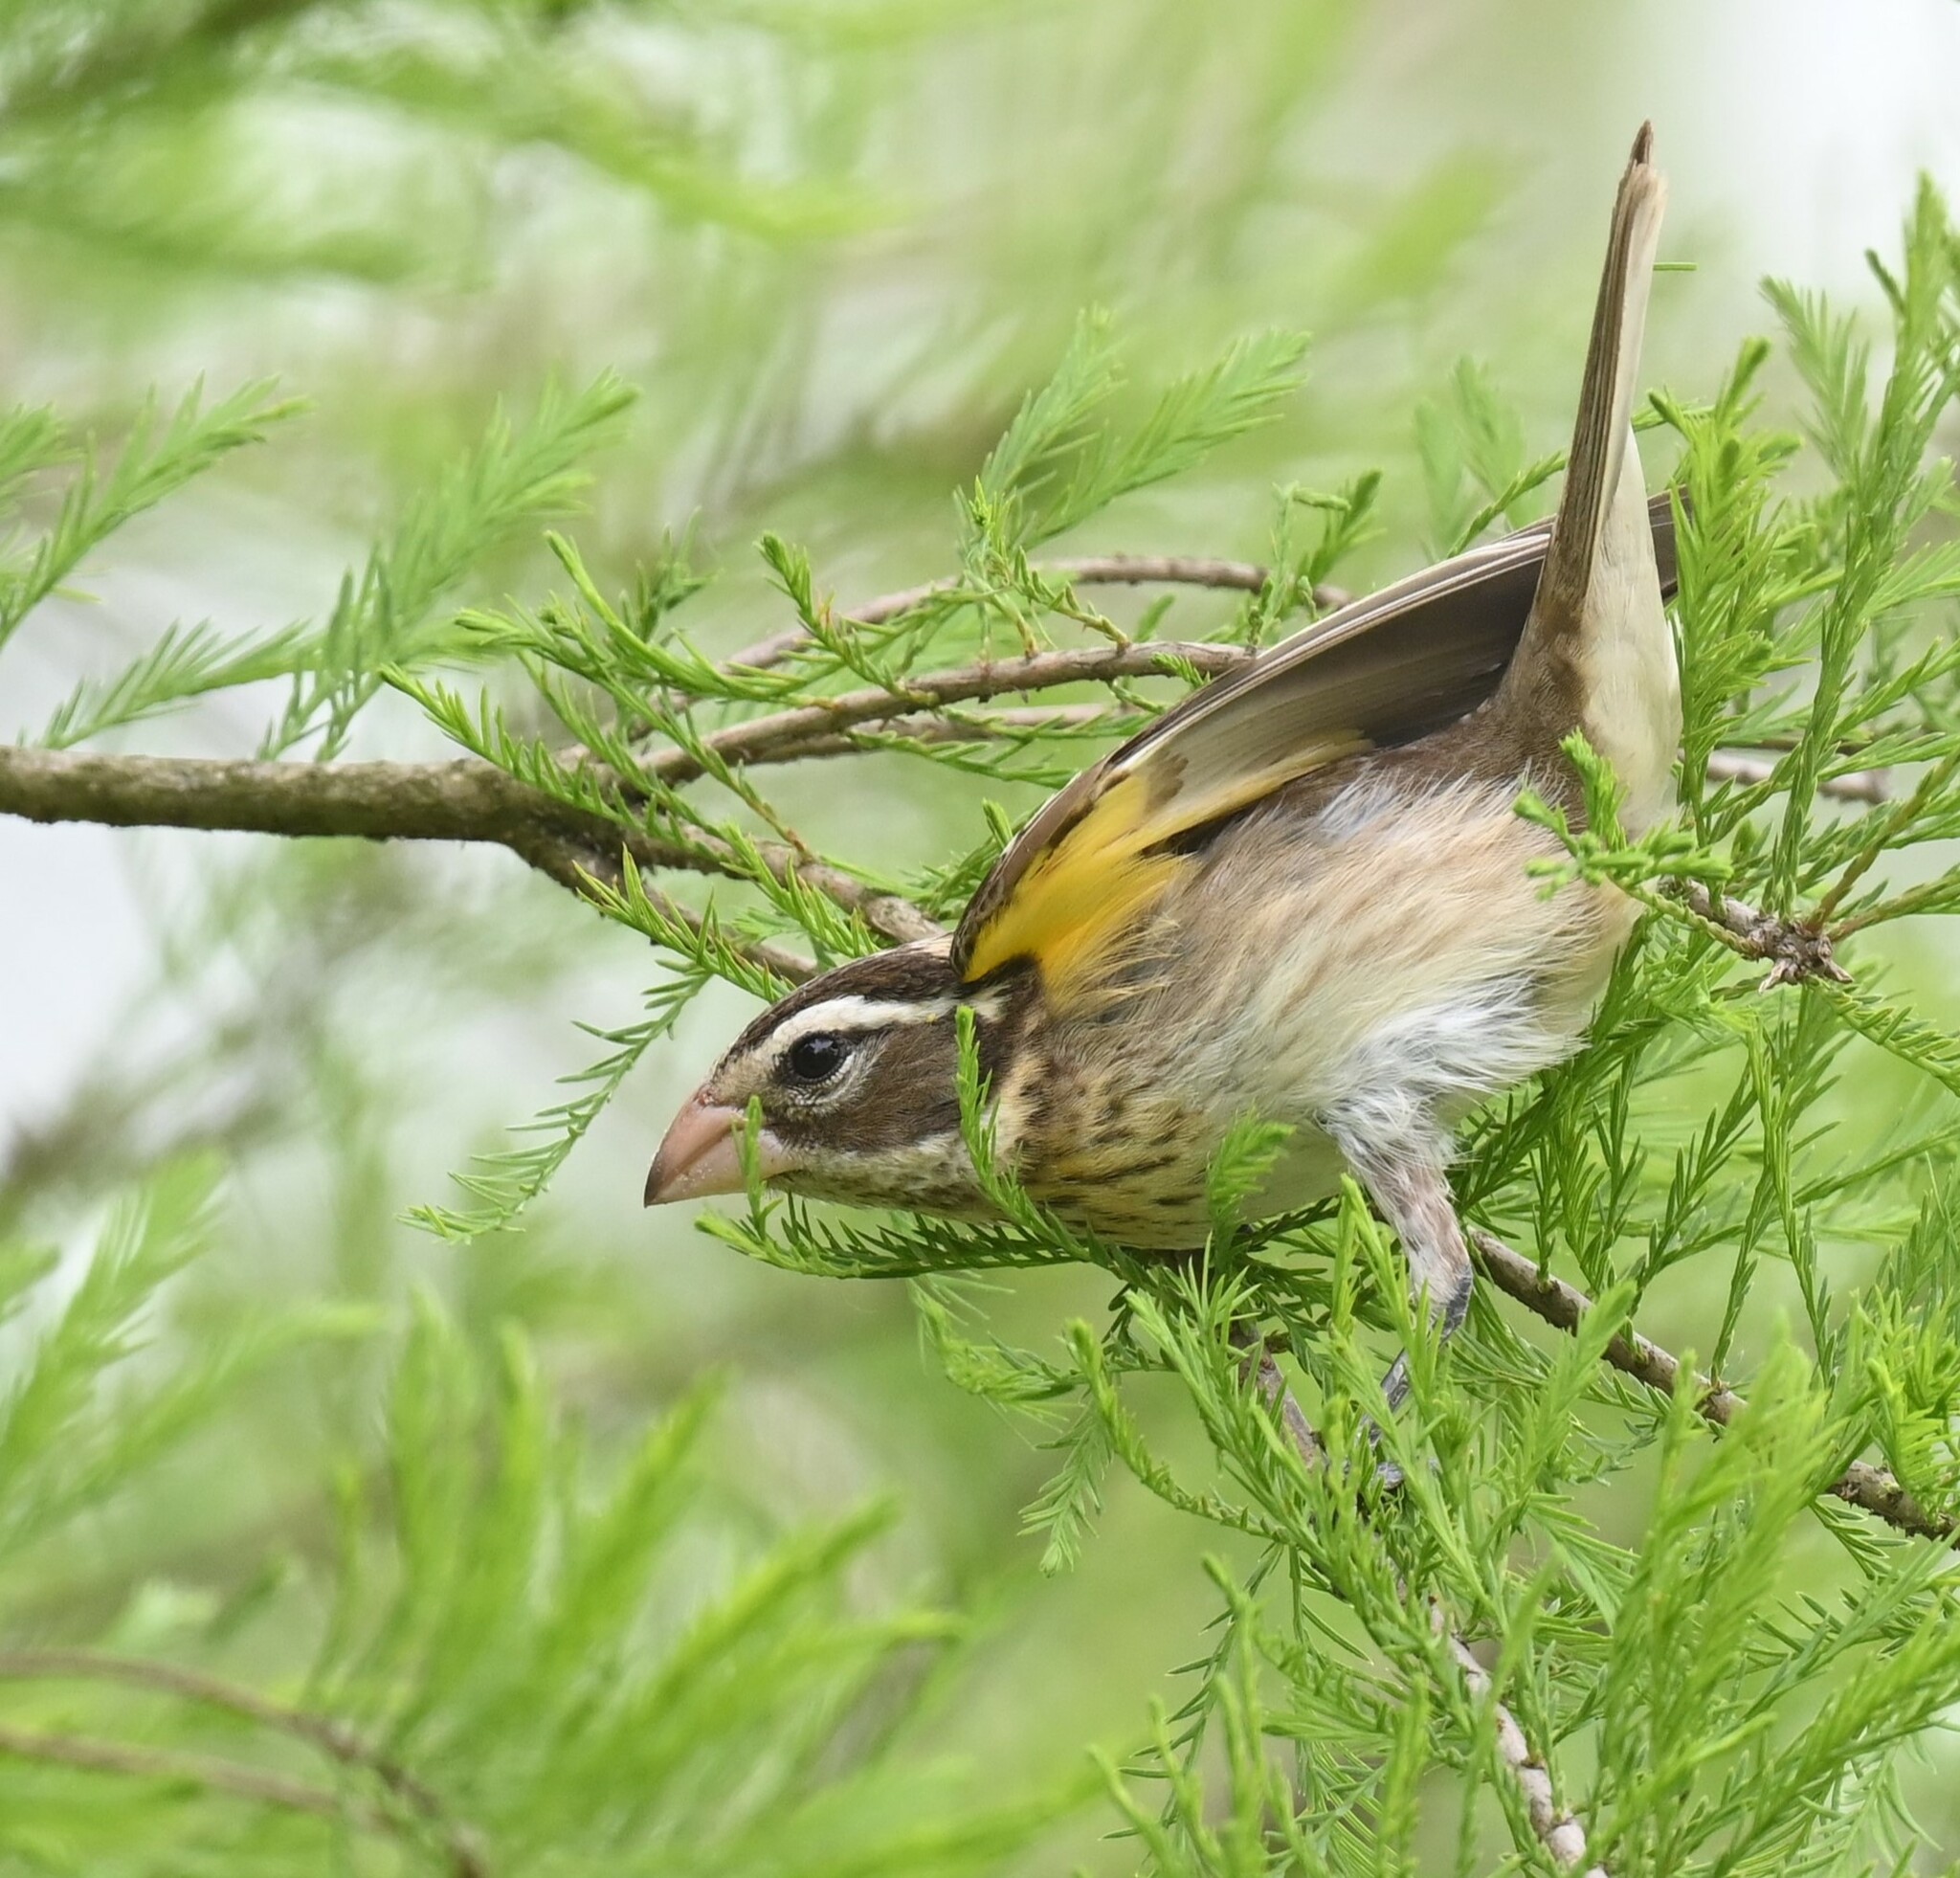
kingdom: Animalia
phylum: Chordata
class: Aves
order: Passeriformes
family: Cardinalidae
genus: Pheucticus
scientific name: Pheucticus ludovicianus
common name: Rose-breasted grosbeak
